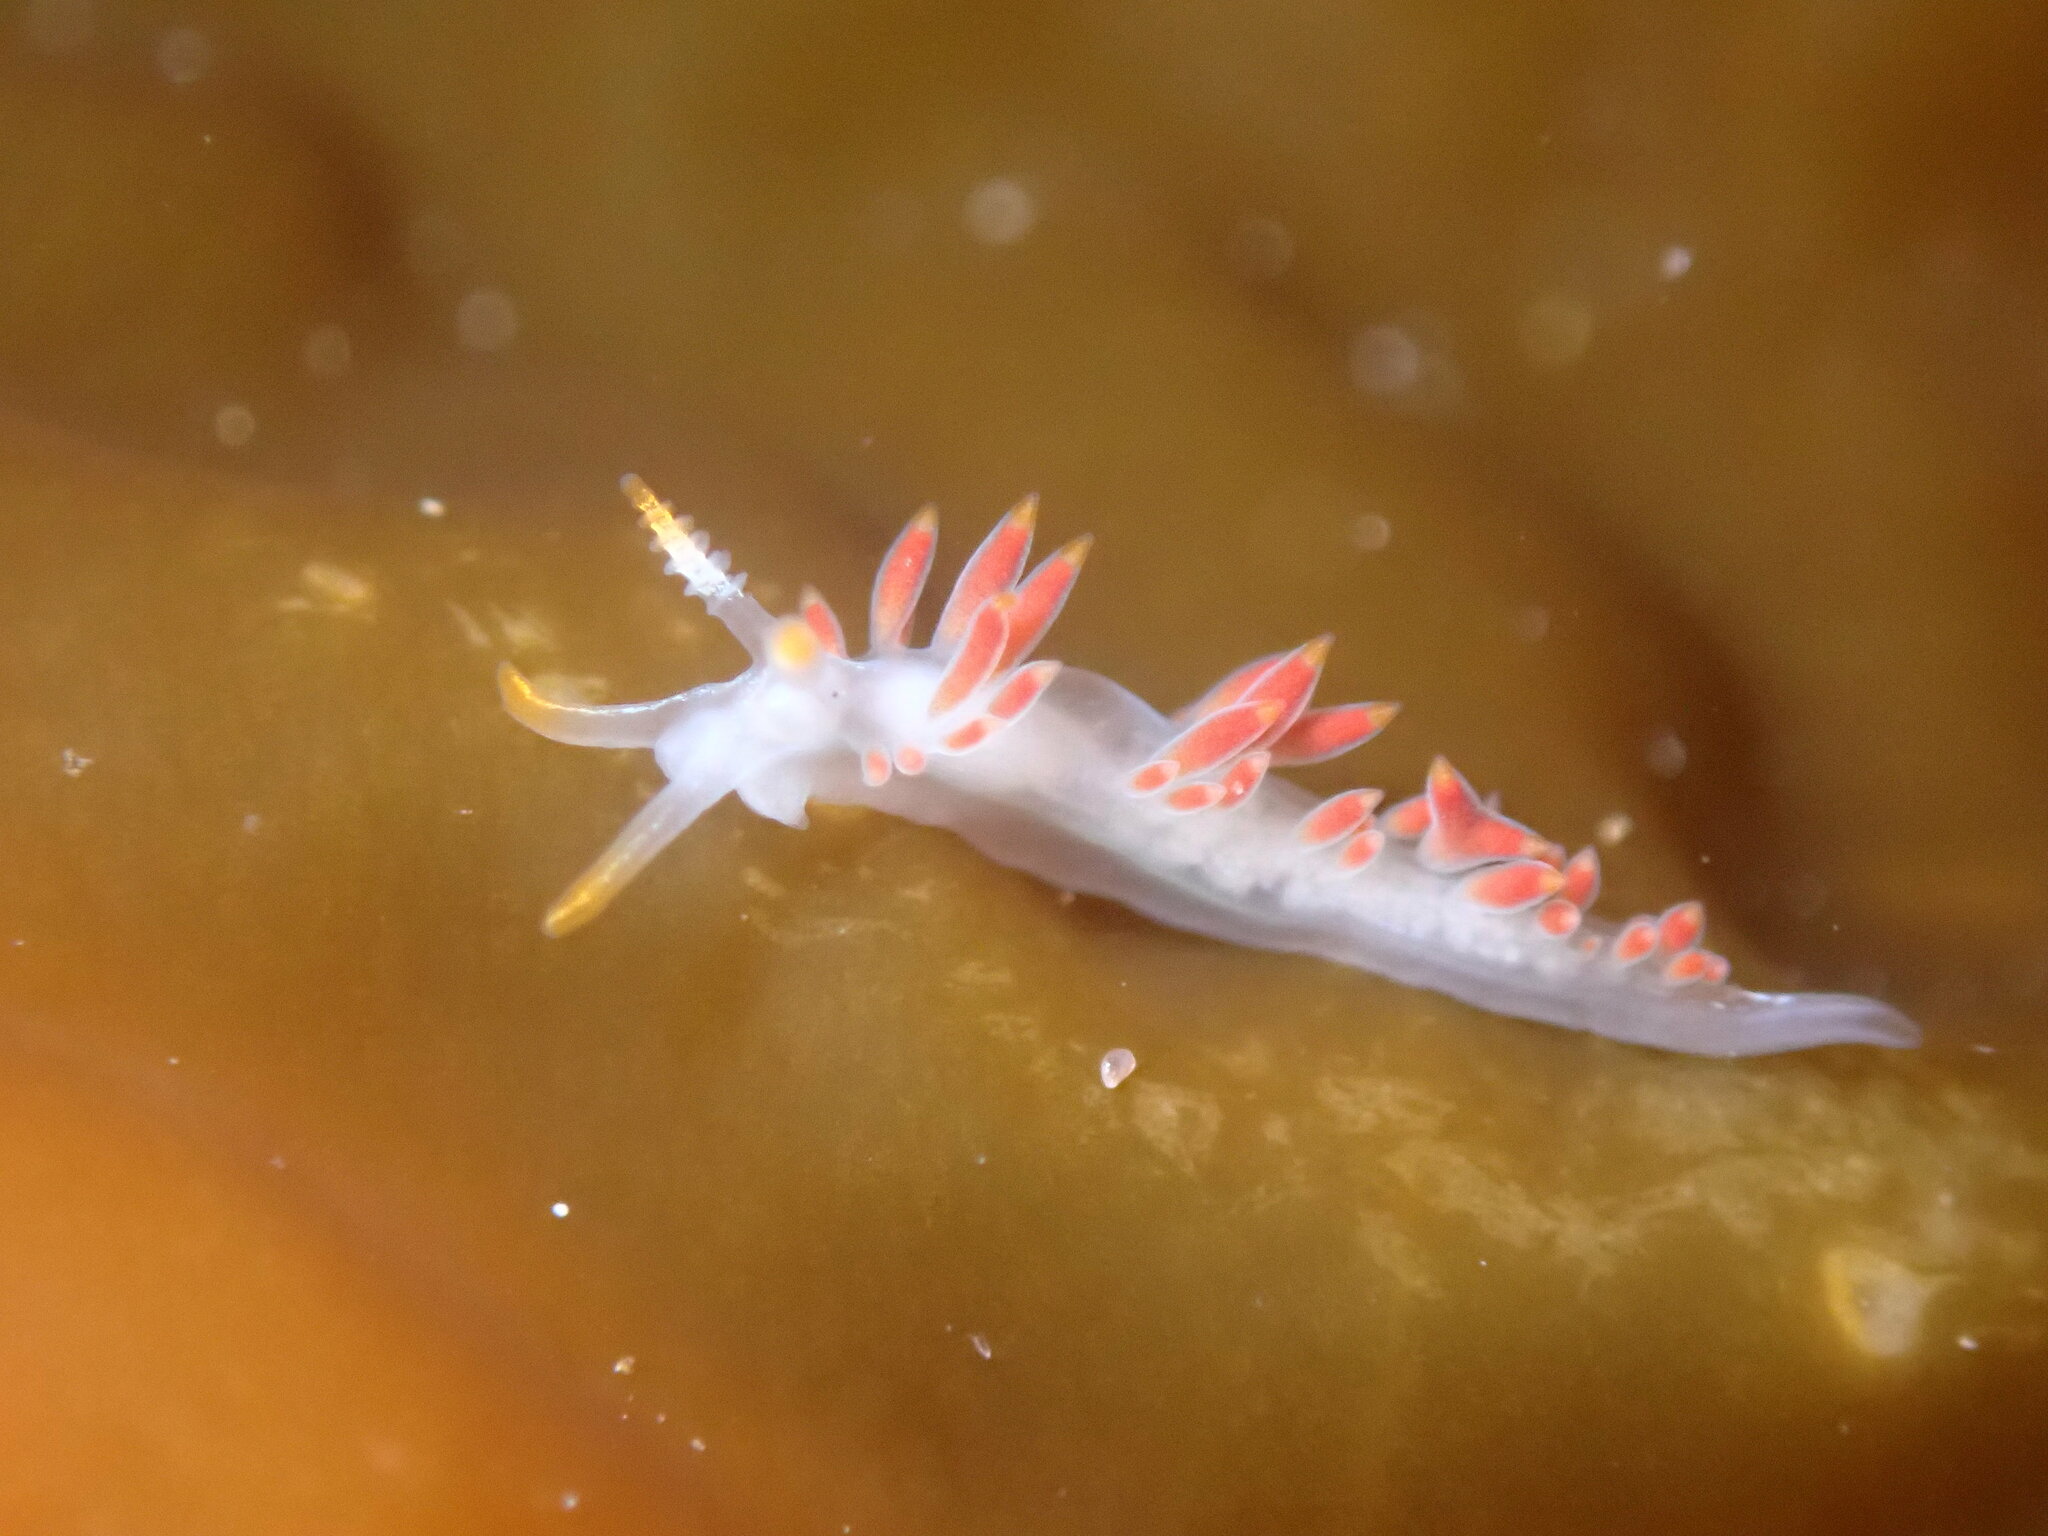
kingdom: Animalia
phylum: Mollusca
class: Gastropoda
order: Nudibranchia
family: Coryphellidae
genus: Coryphella
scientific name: Coryphella trilineata
